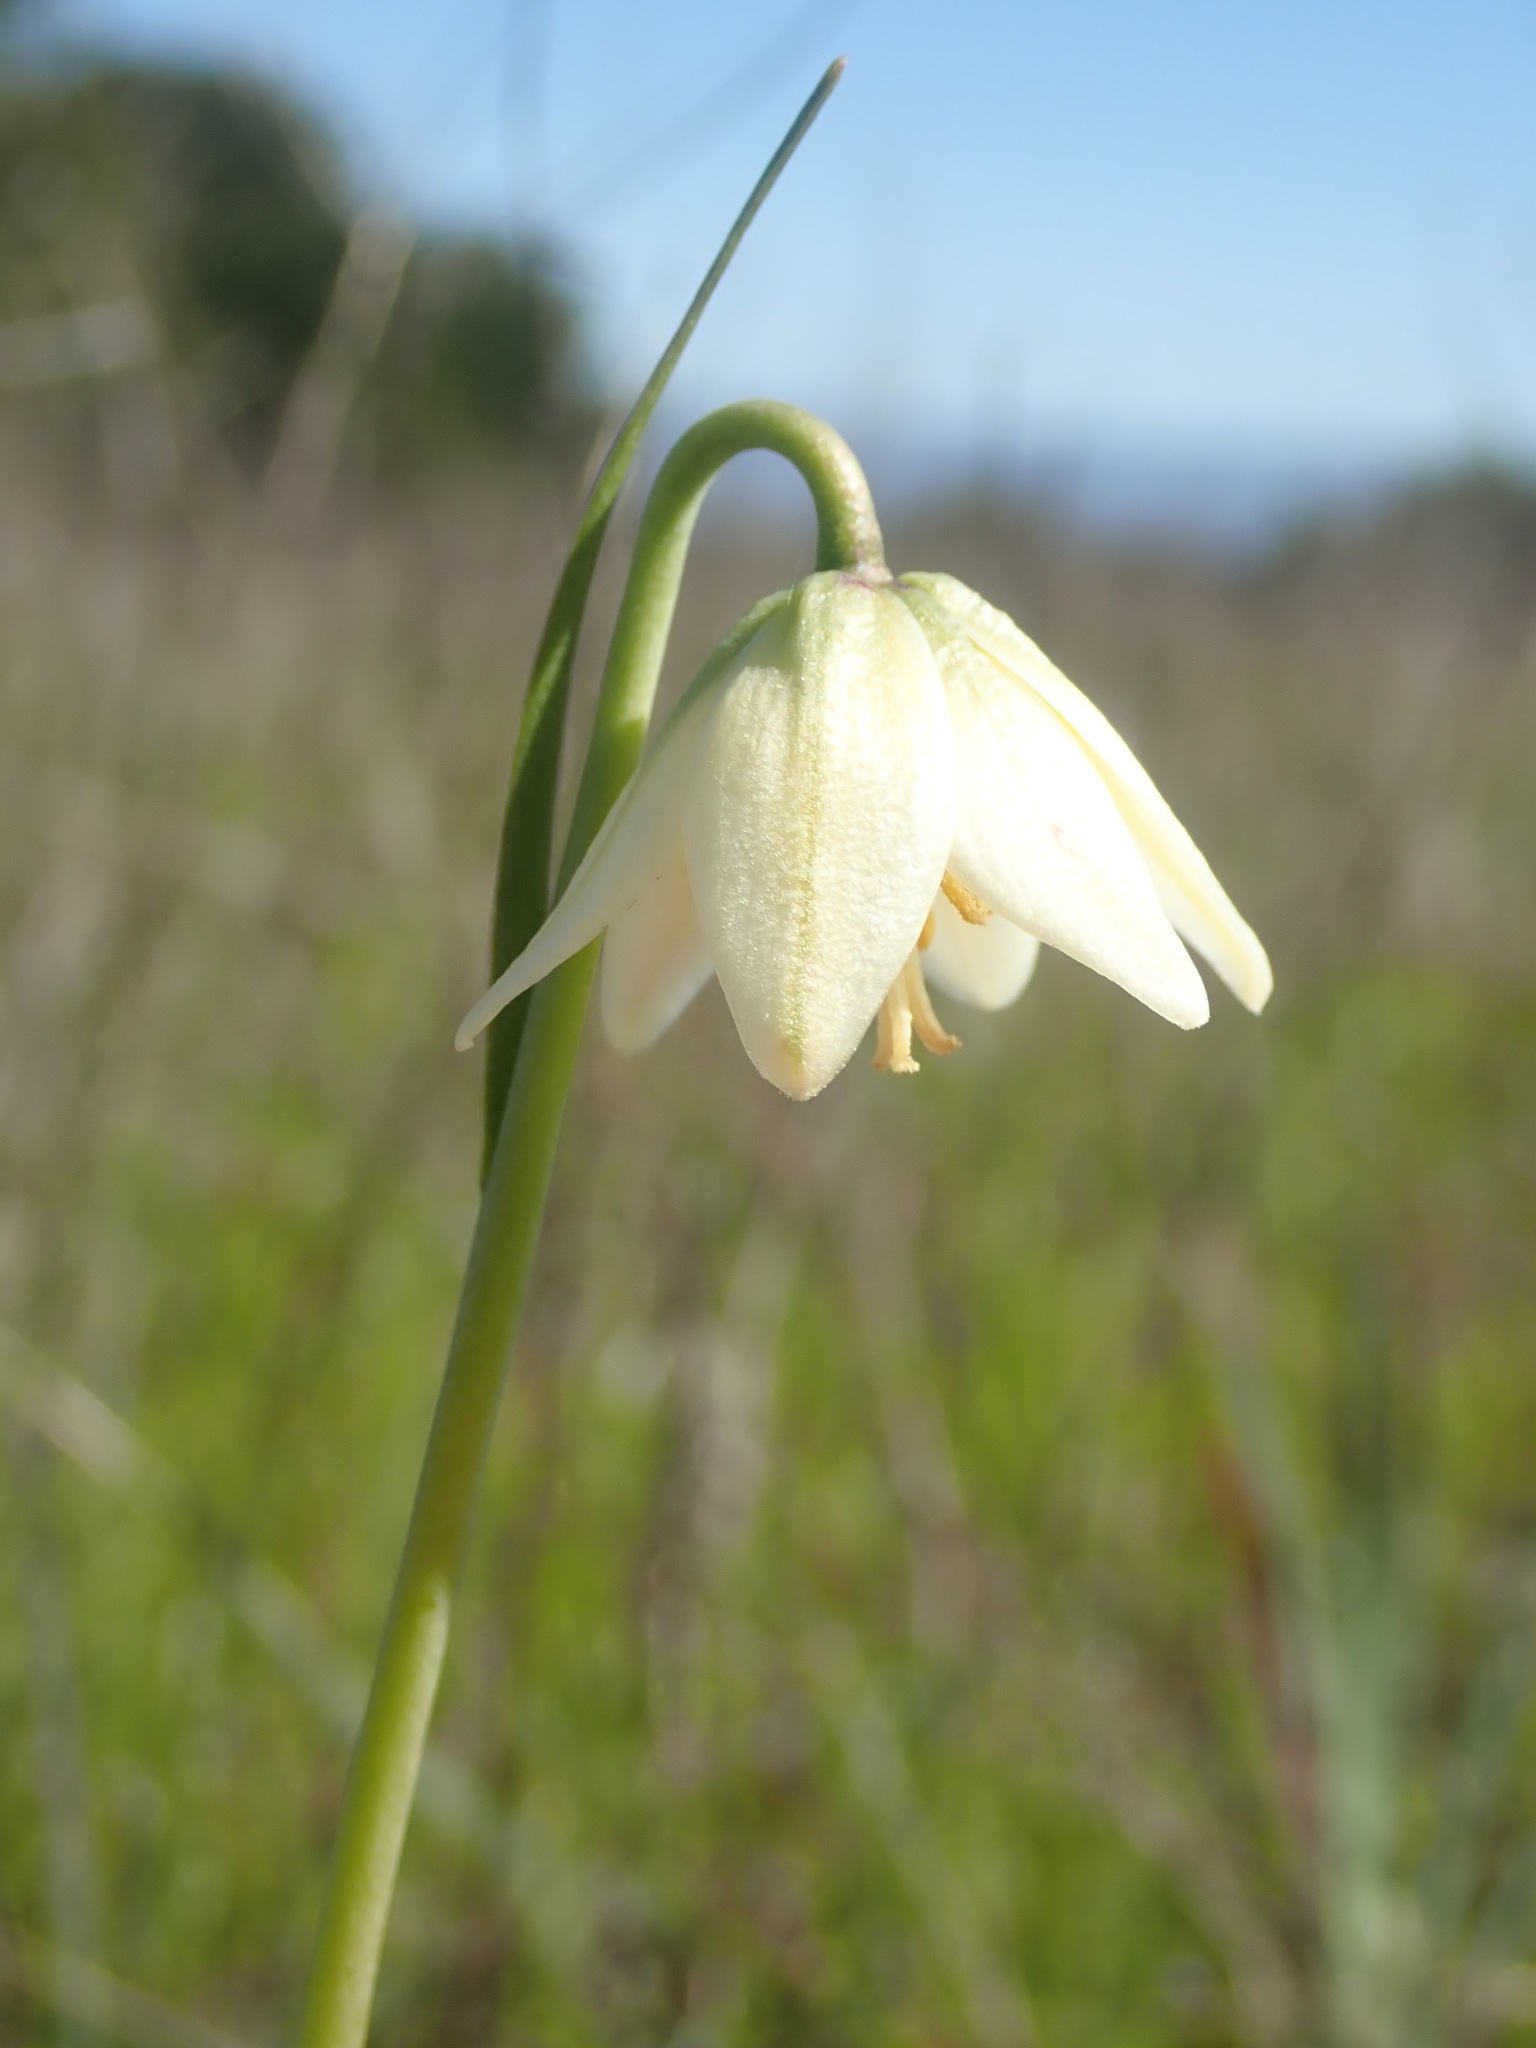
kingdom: Plantae
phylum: Tracheophyta
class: Liliopsida
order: Liliales
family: Liliaceae
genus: Fritillaria
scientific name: Fritillaria liliacea
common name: Fragrant fritillary
